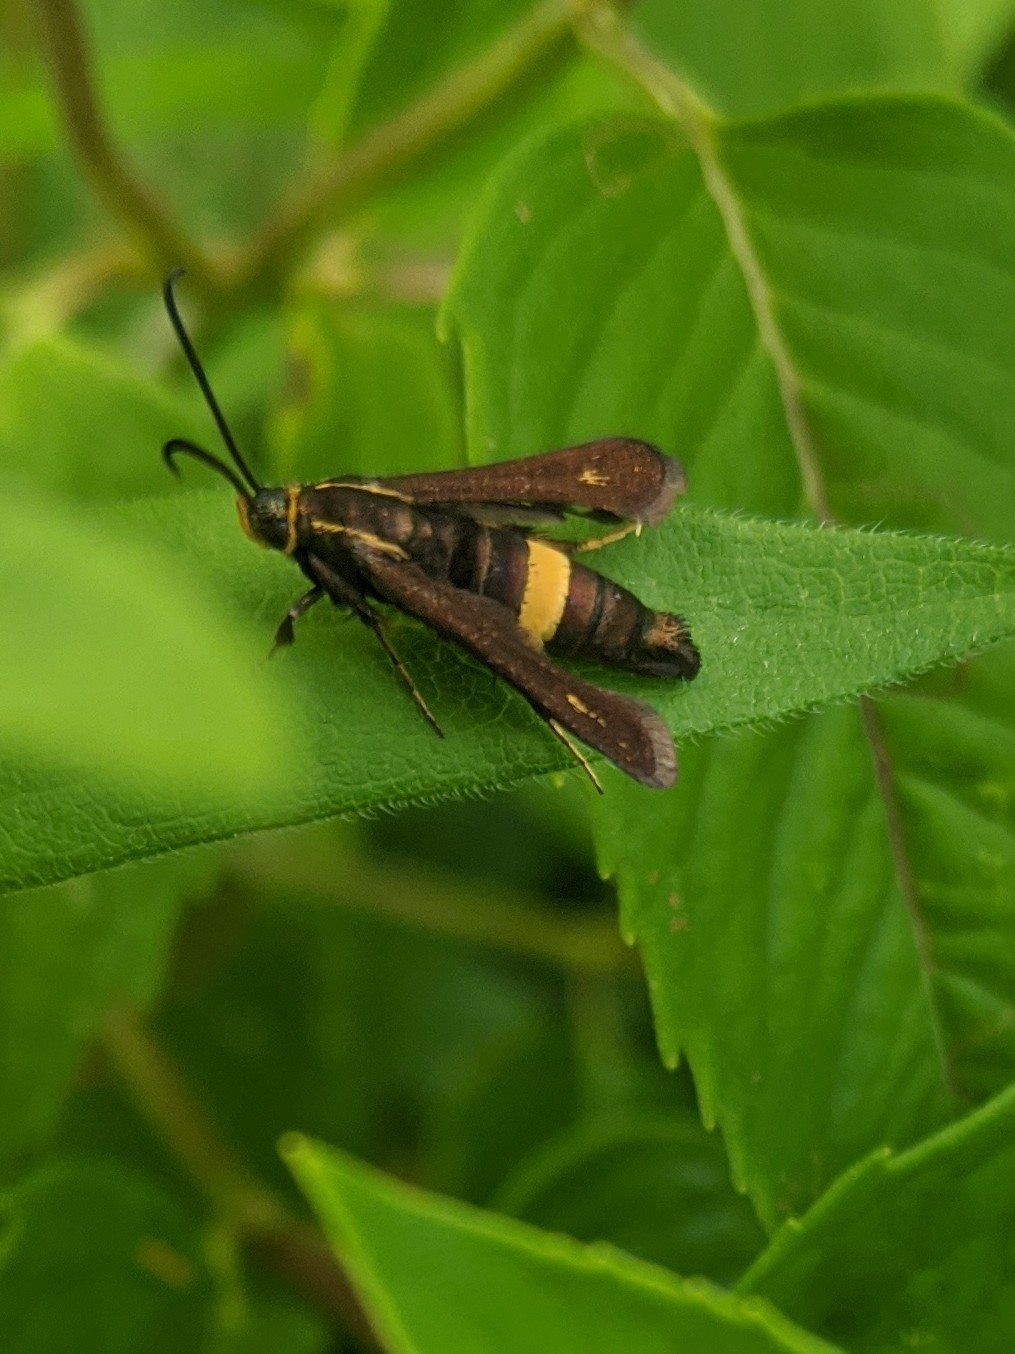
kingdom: Animalia
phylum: Arthropoda
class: Insecta
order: Lepidoptera
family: Sesiidae
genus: Carmenta
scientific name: Carmenta pyralidiformis
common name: Boneset borer moth
